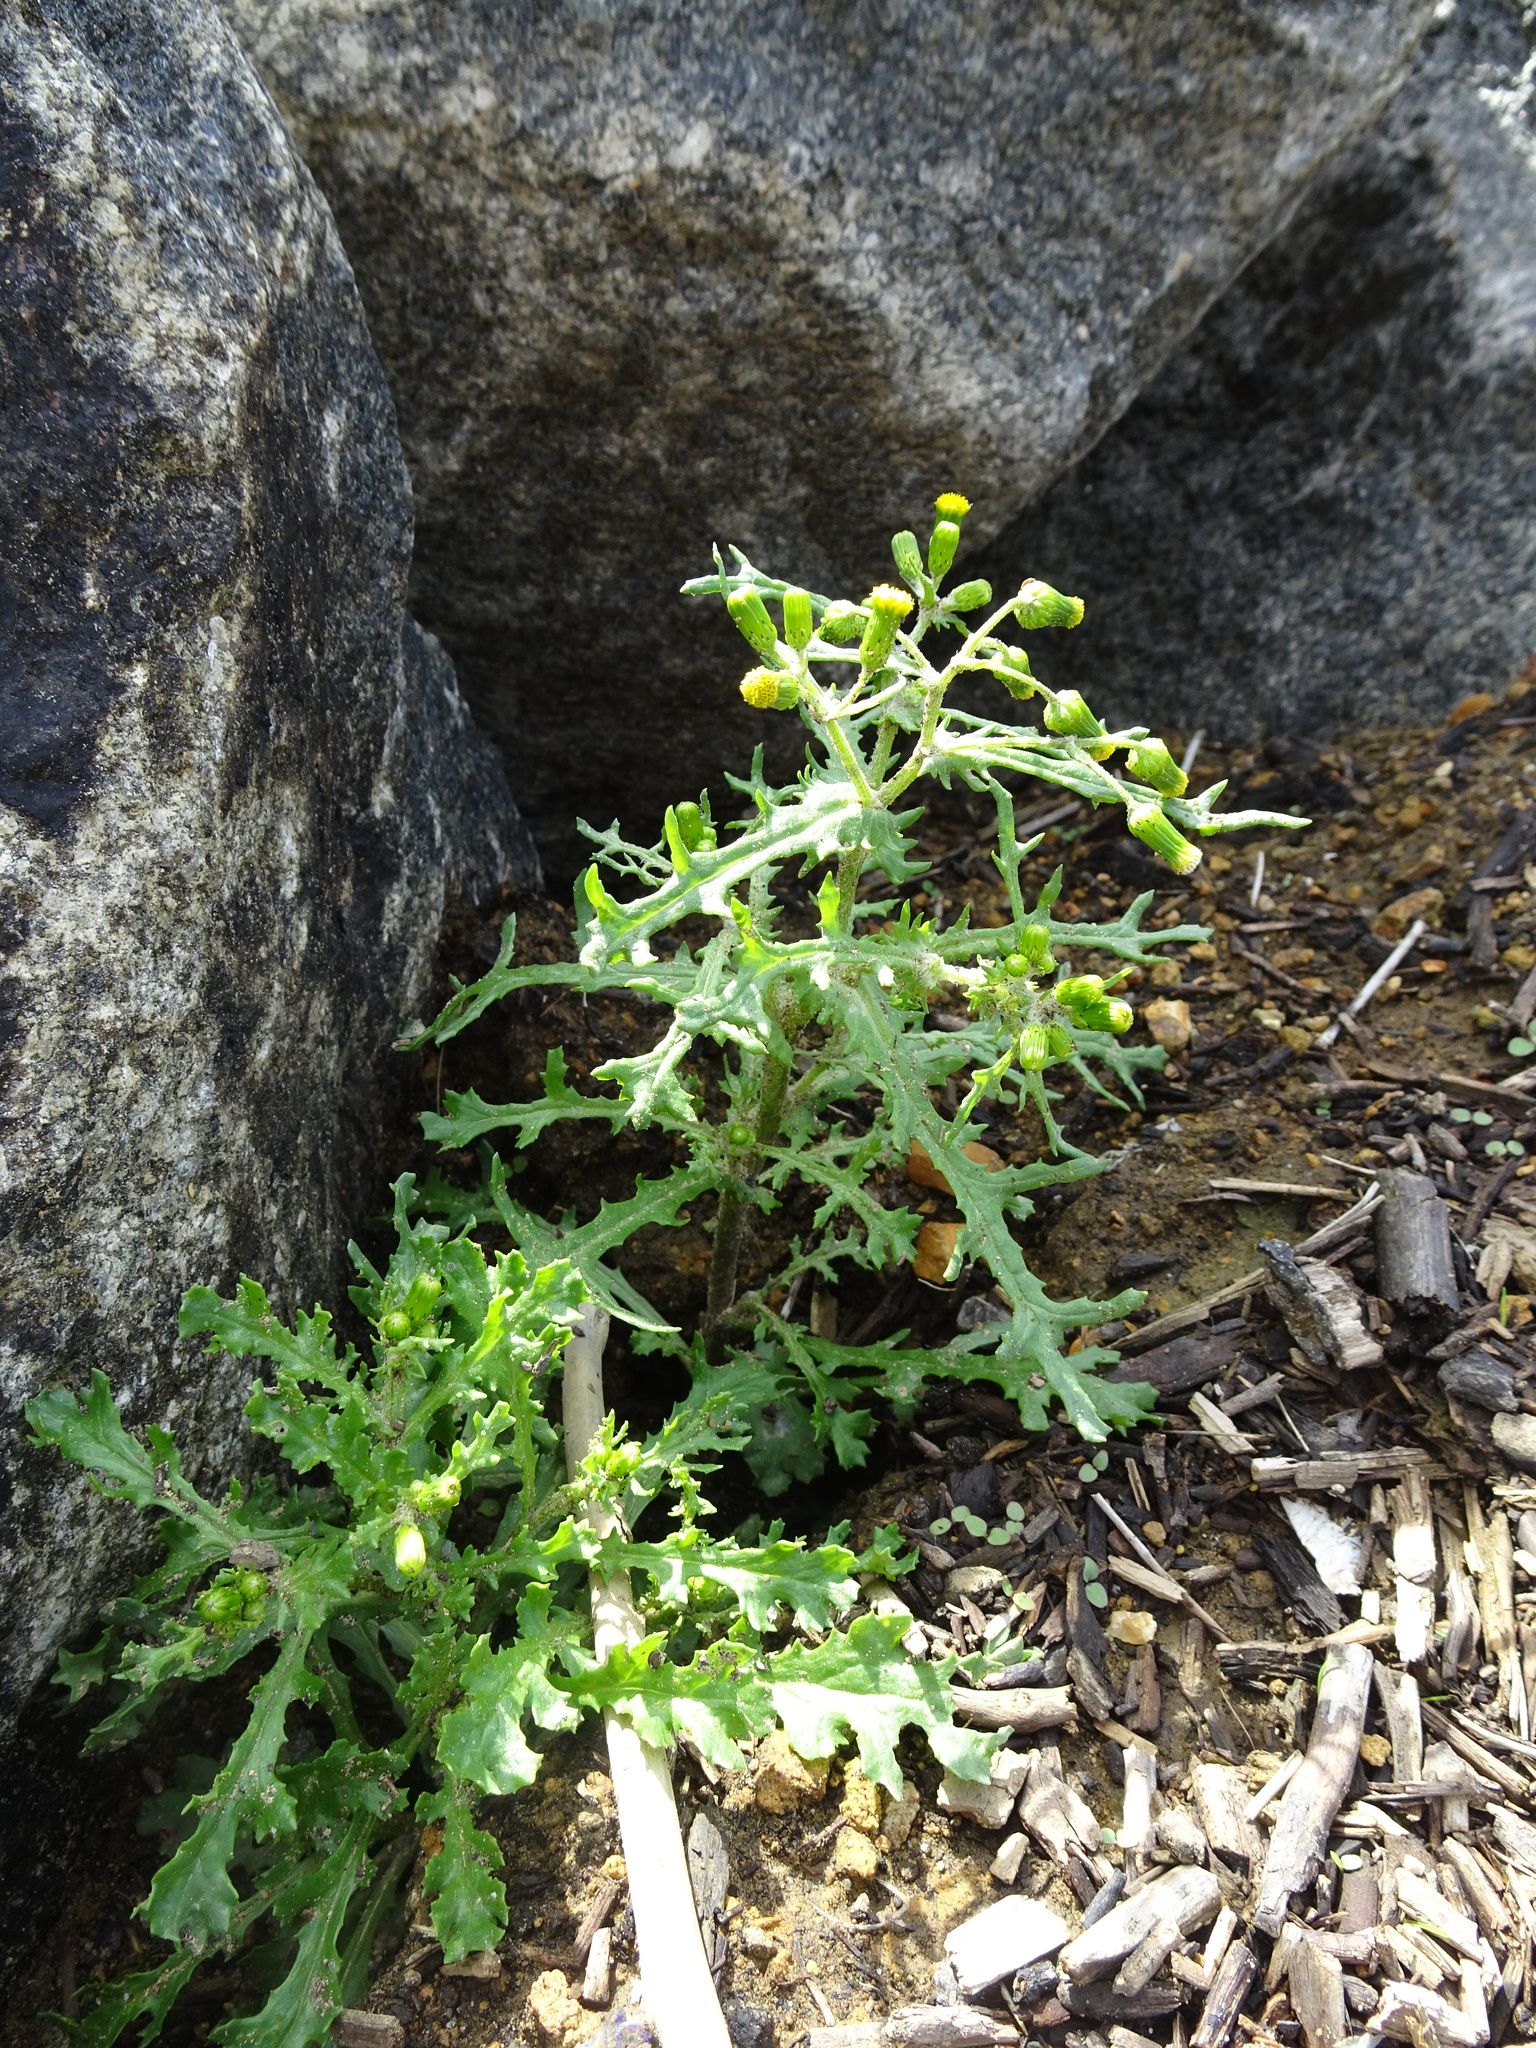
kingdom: Plantae
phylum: Tracheophyta
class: Magnoliopsida
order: Asterales
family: Asteraceae
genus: Senecio
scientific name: Senecio vulgaris
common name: Old-man-in-the-spring
